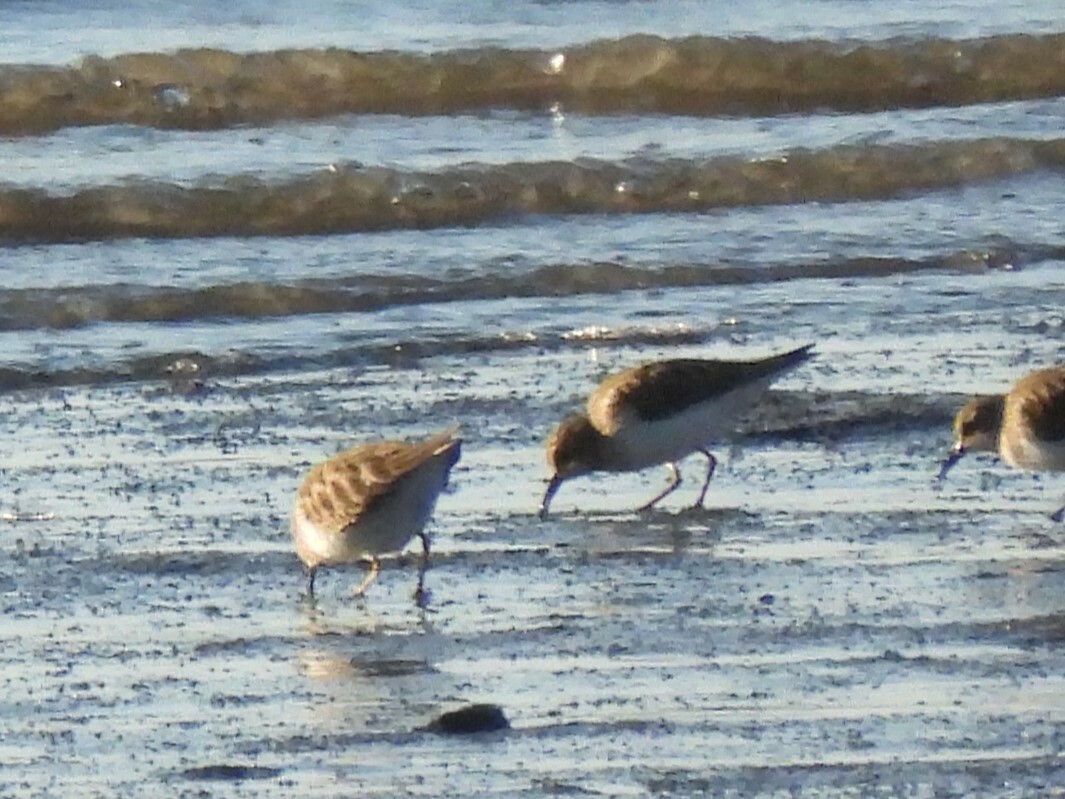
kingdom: Animalia
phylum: Chordata
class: Aves
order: Charadriiformes
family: Scolopacidae
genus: Calidris
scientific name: Calidris minutilla
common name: Least sandpiper
